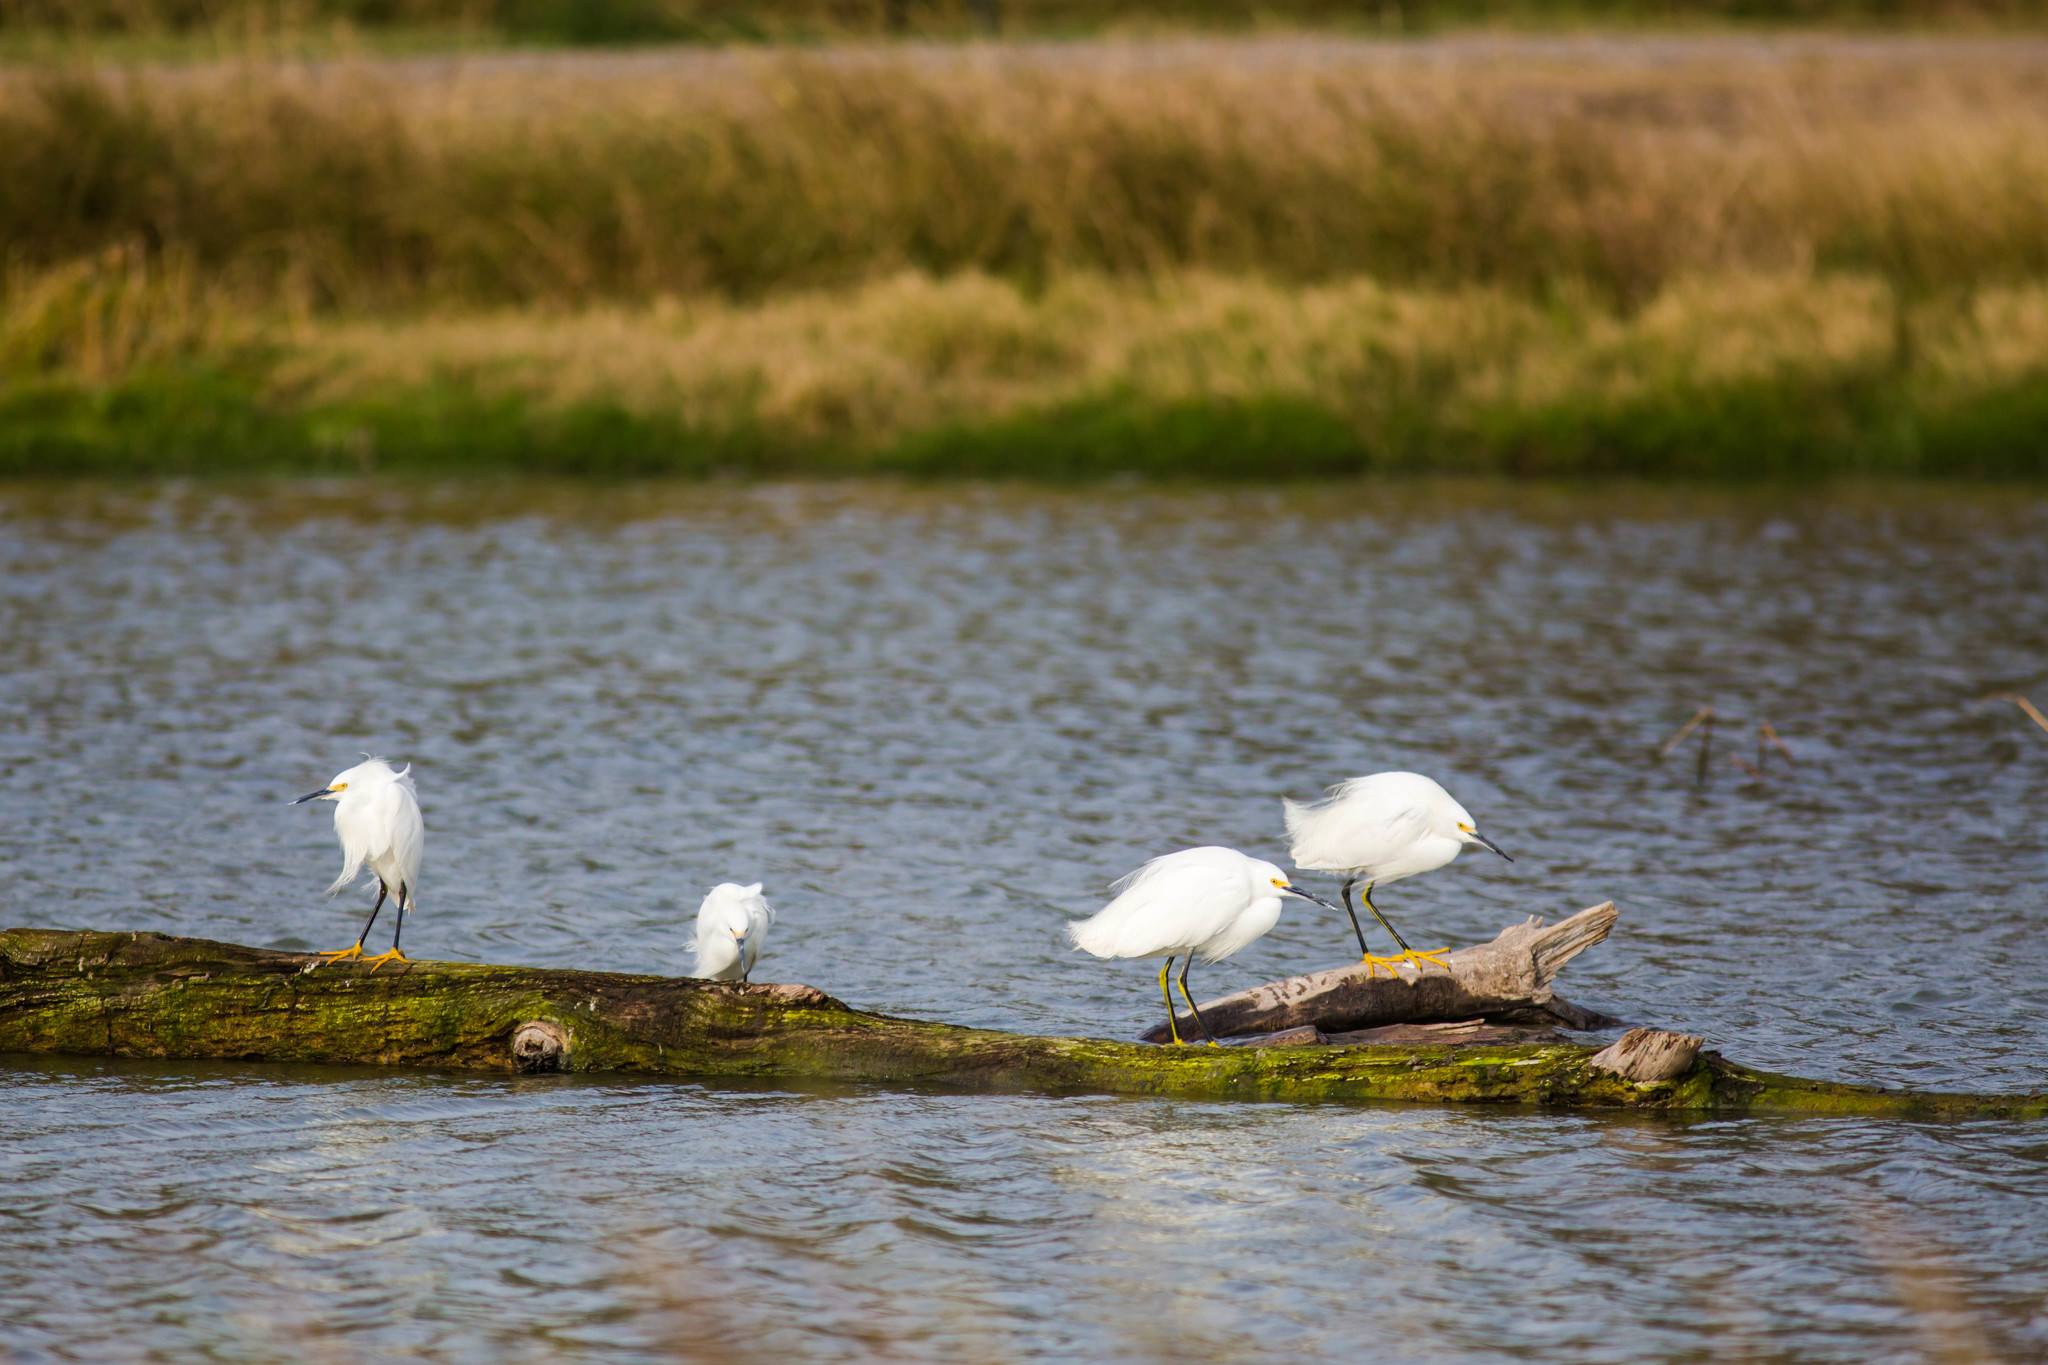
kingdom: Animalia
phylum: Chordata
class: Aves
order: Pelecaniformes
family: Ardeidae
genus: Egretta
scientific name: Egretta thula
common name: Snowy egret
